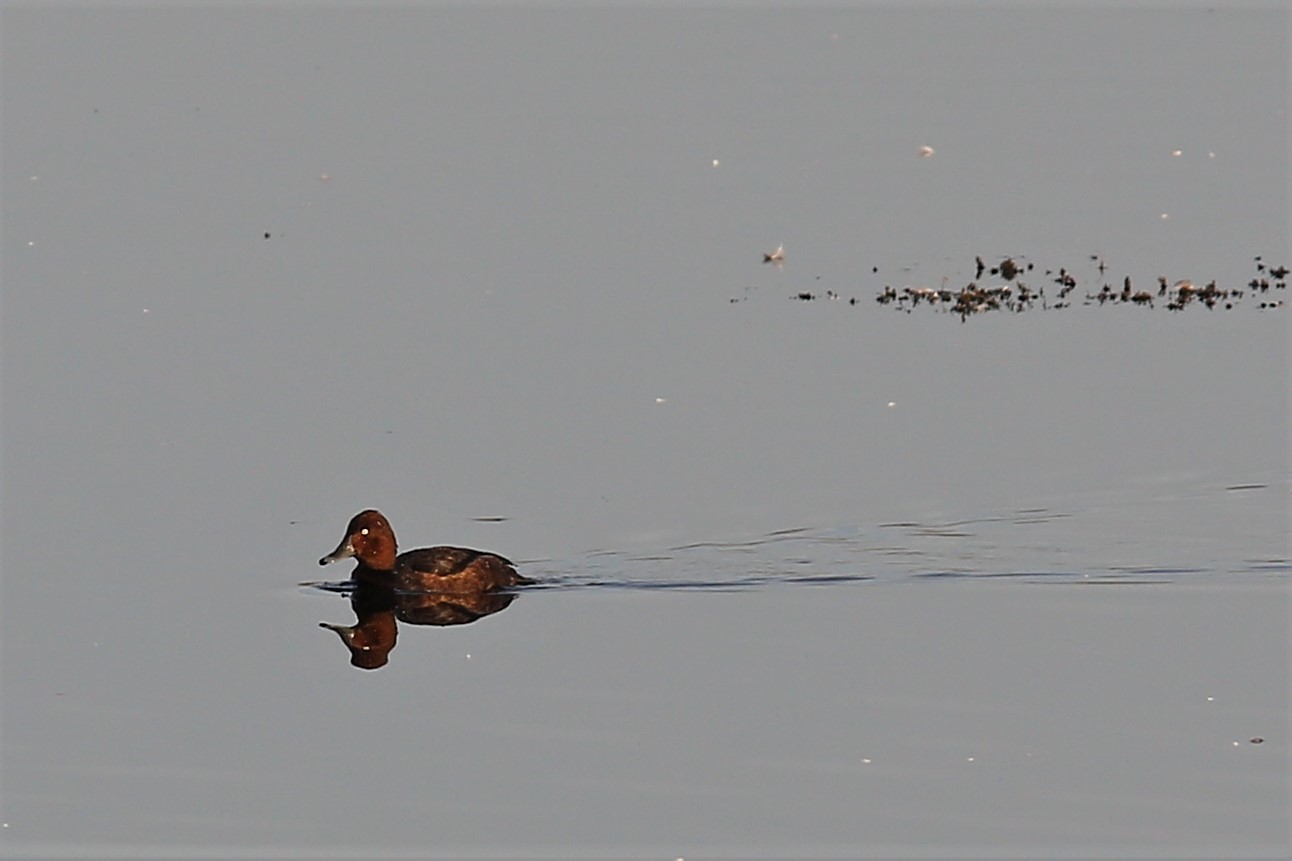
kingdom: Animalia
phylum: Chordata
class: Aves
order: Anseriformes
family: Anatidae
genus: Aythya
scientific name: Aythya nyroca
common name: Ferruginous duck
